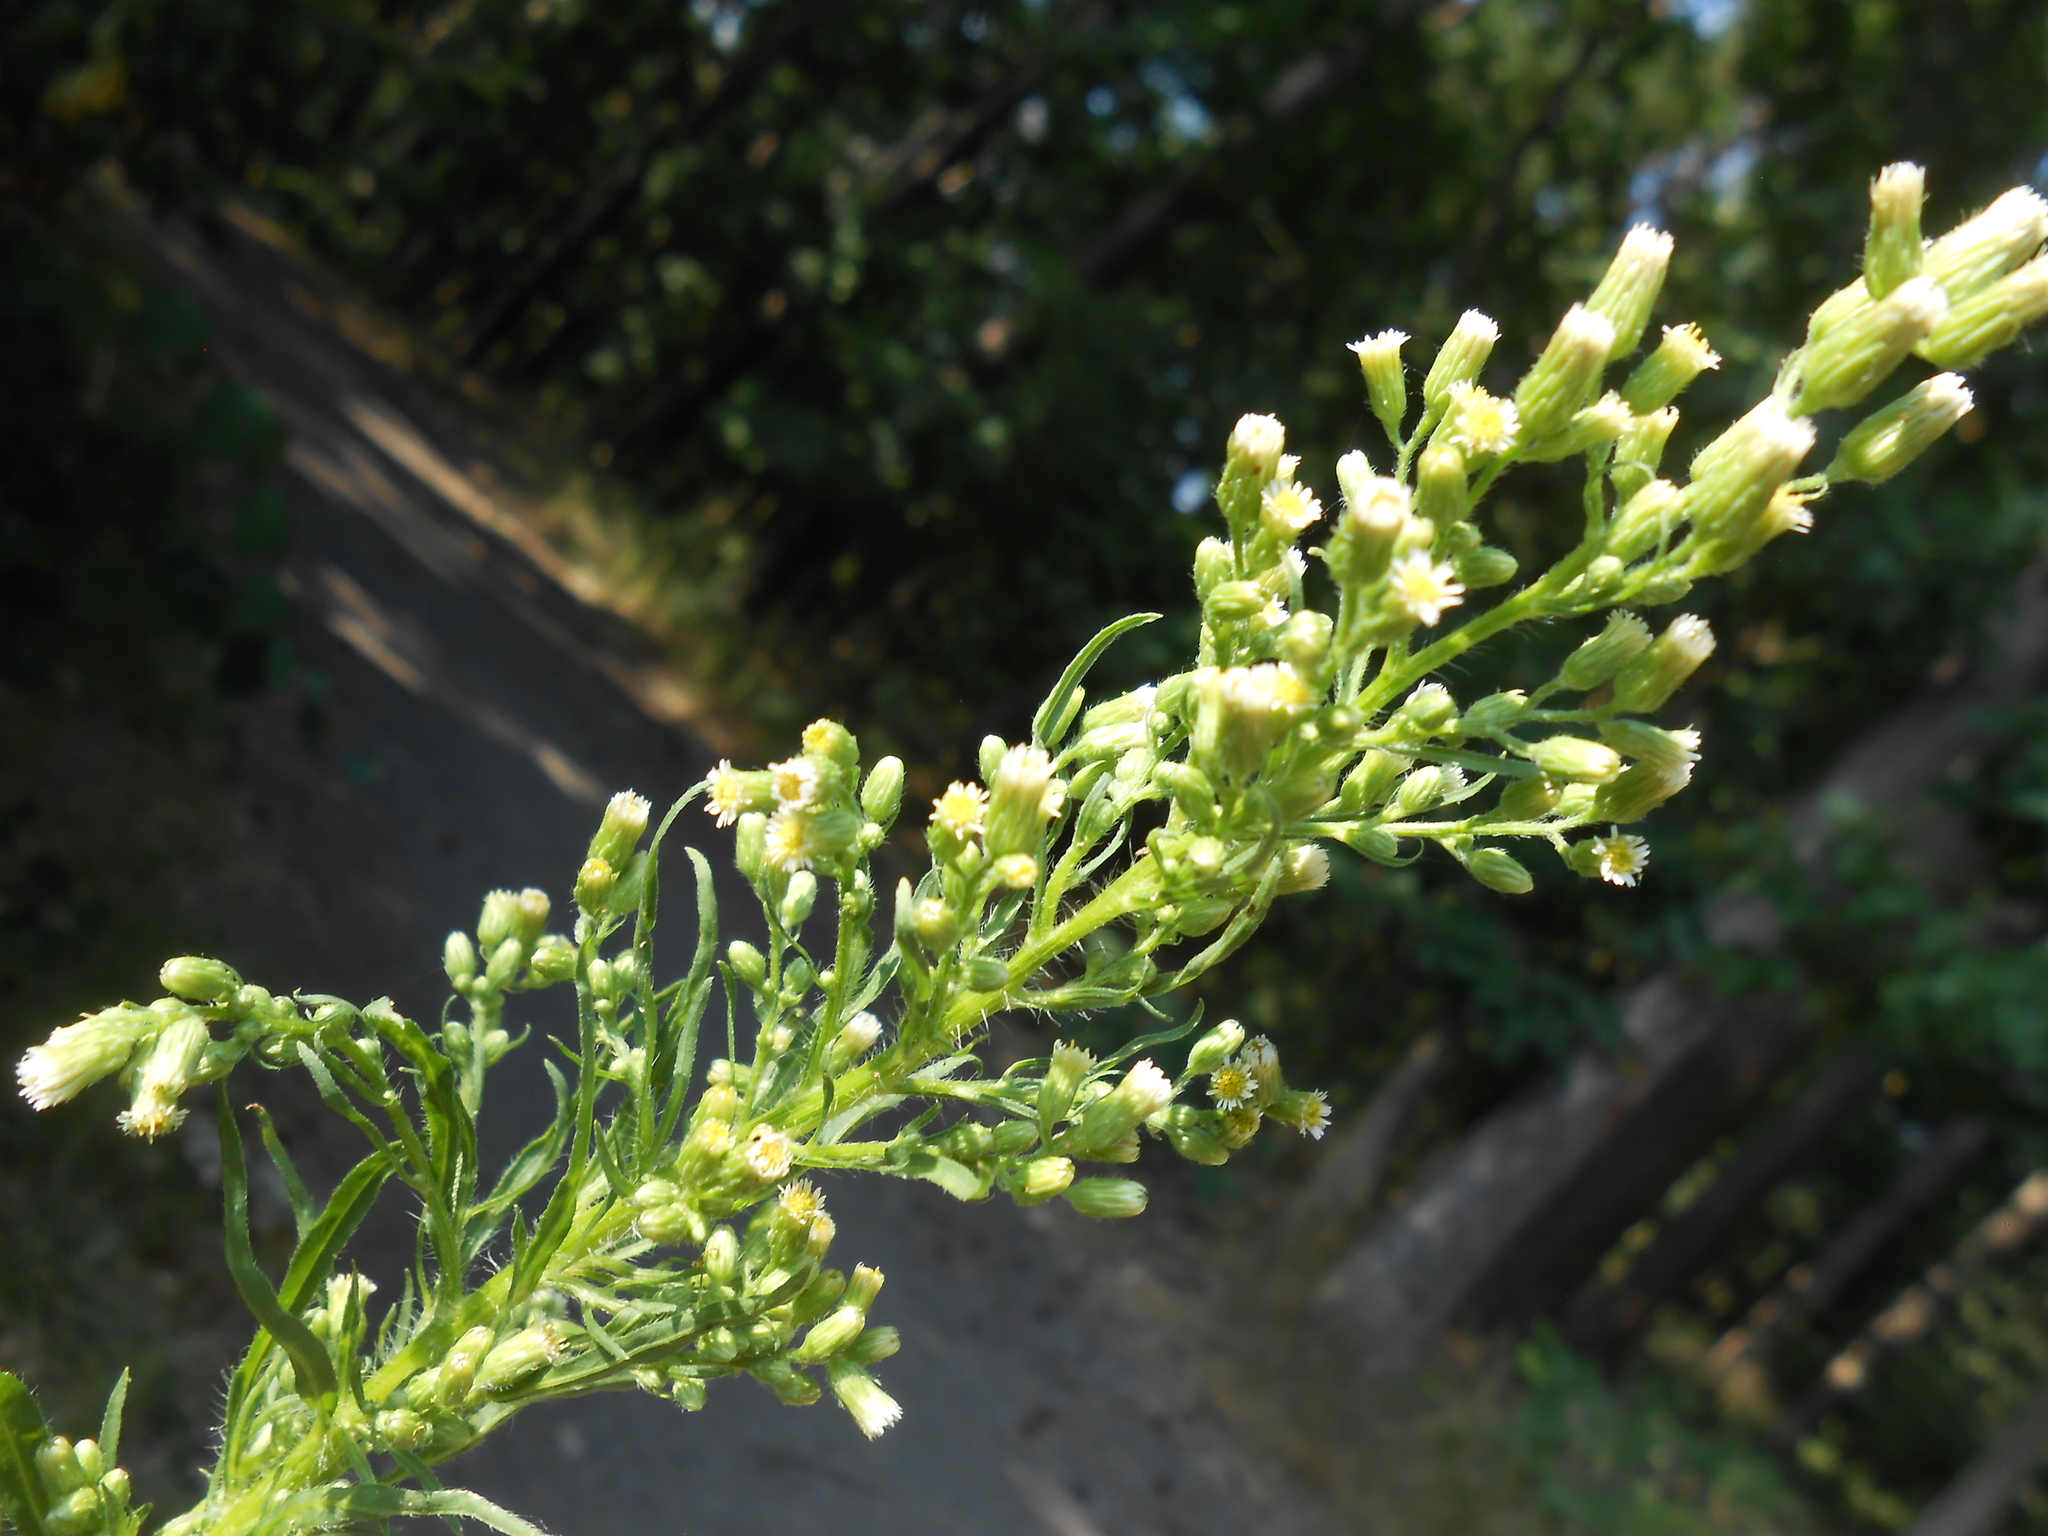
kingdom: Plantae
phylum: Tracheophyta
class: Magnoliopsida
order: Asterales
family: Asteraceae
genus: Erigeron
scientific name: Erigeron canadensis
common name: Canadian fleabane
